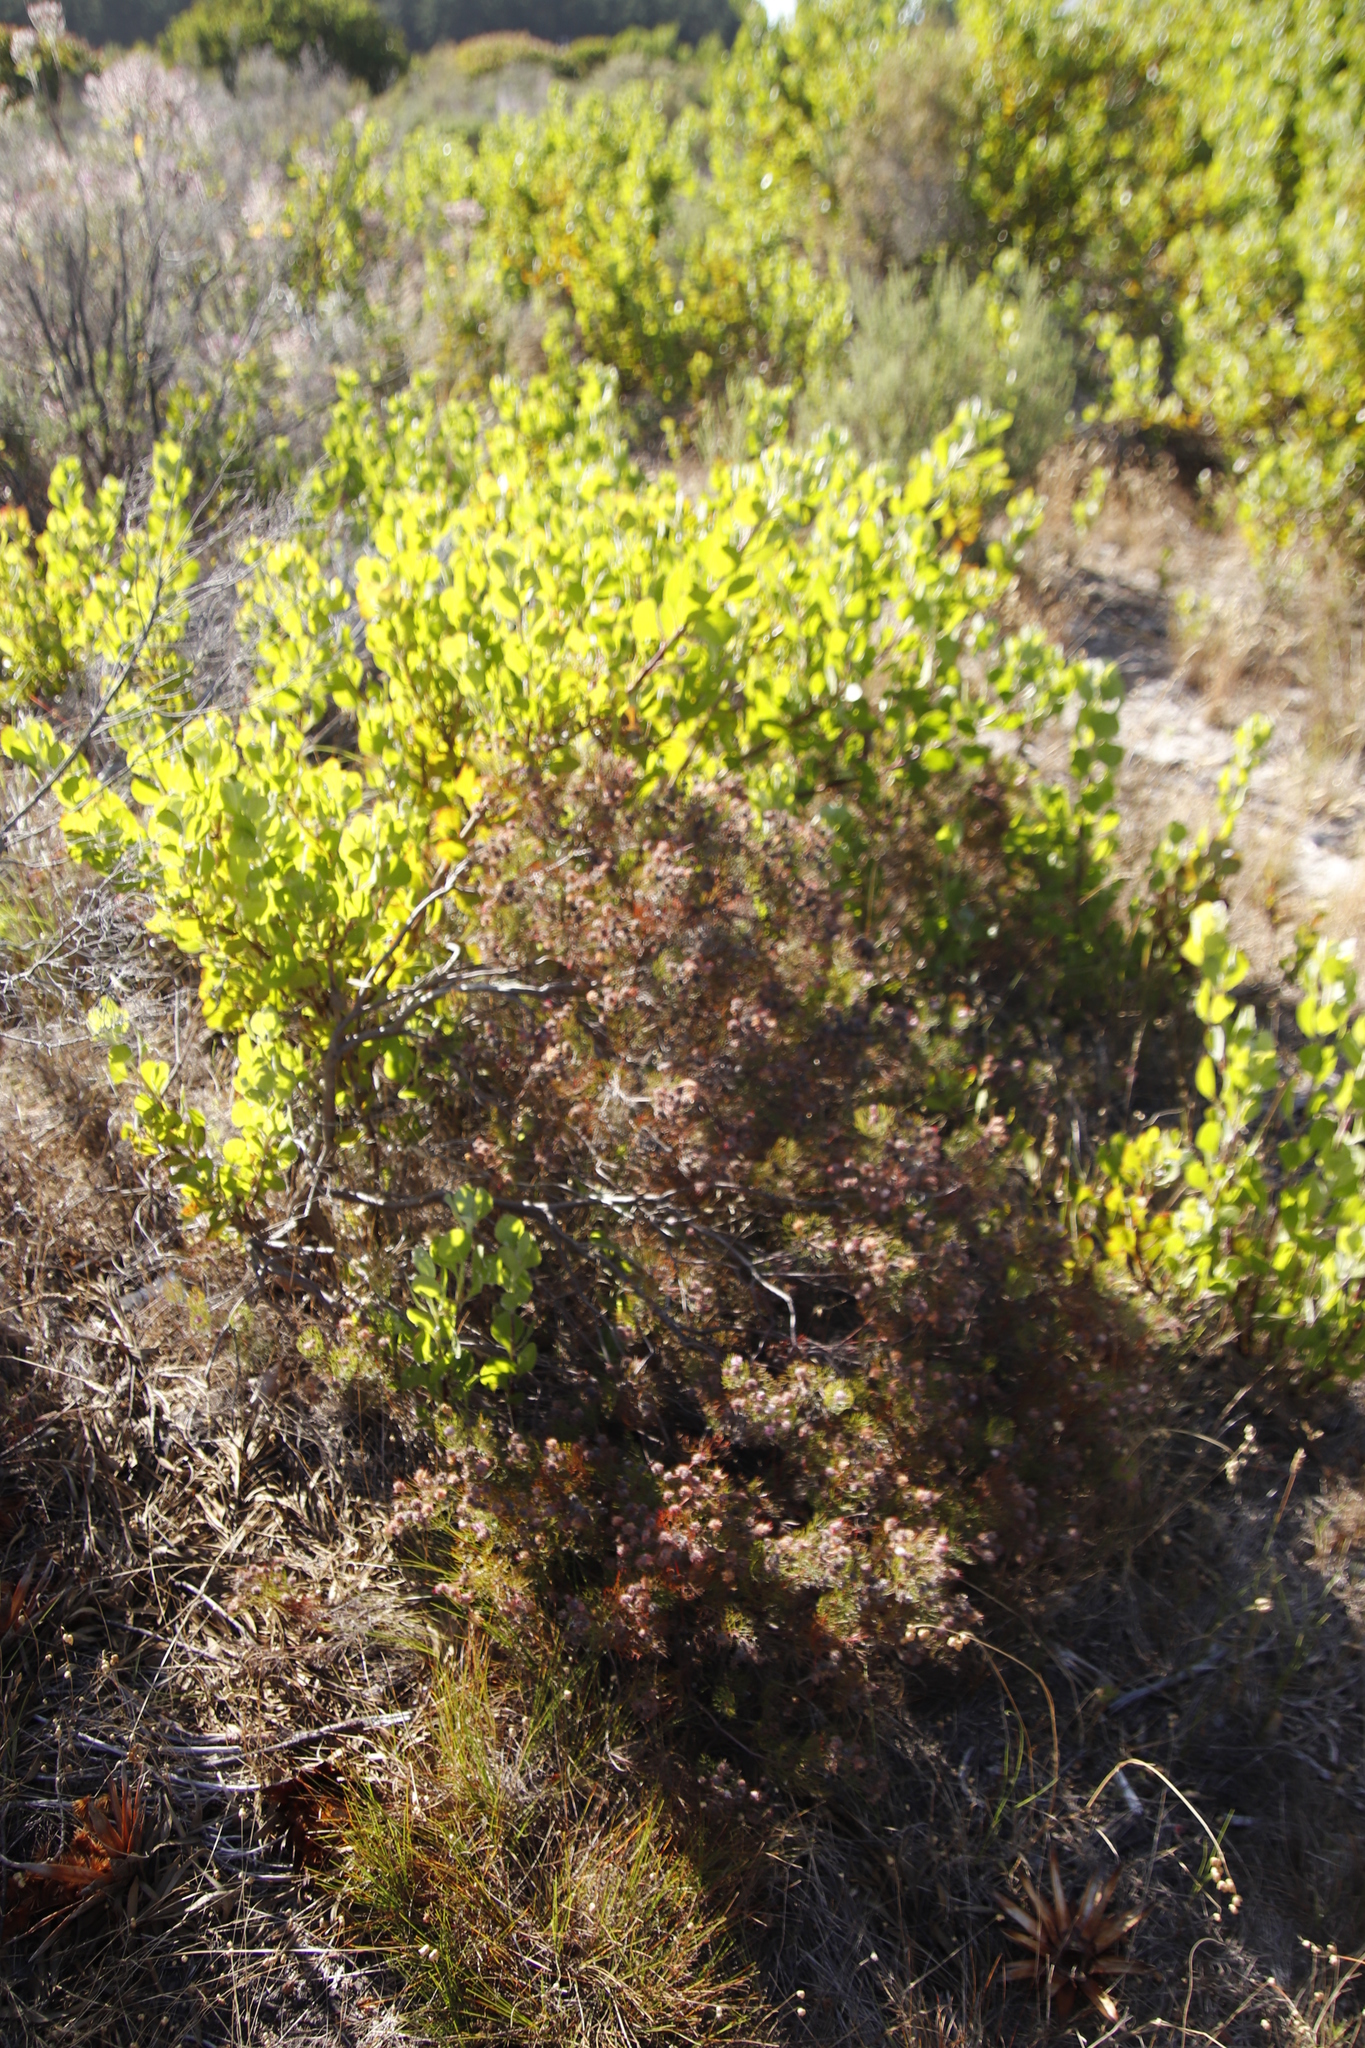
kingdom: Plantae
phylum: Tracheophyta
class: Magnoliopsida
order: Proteales
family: Proteaceae
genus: Serruria
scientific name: Serruria fasciflora
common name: Common pin spiderhead
